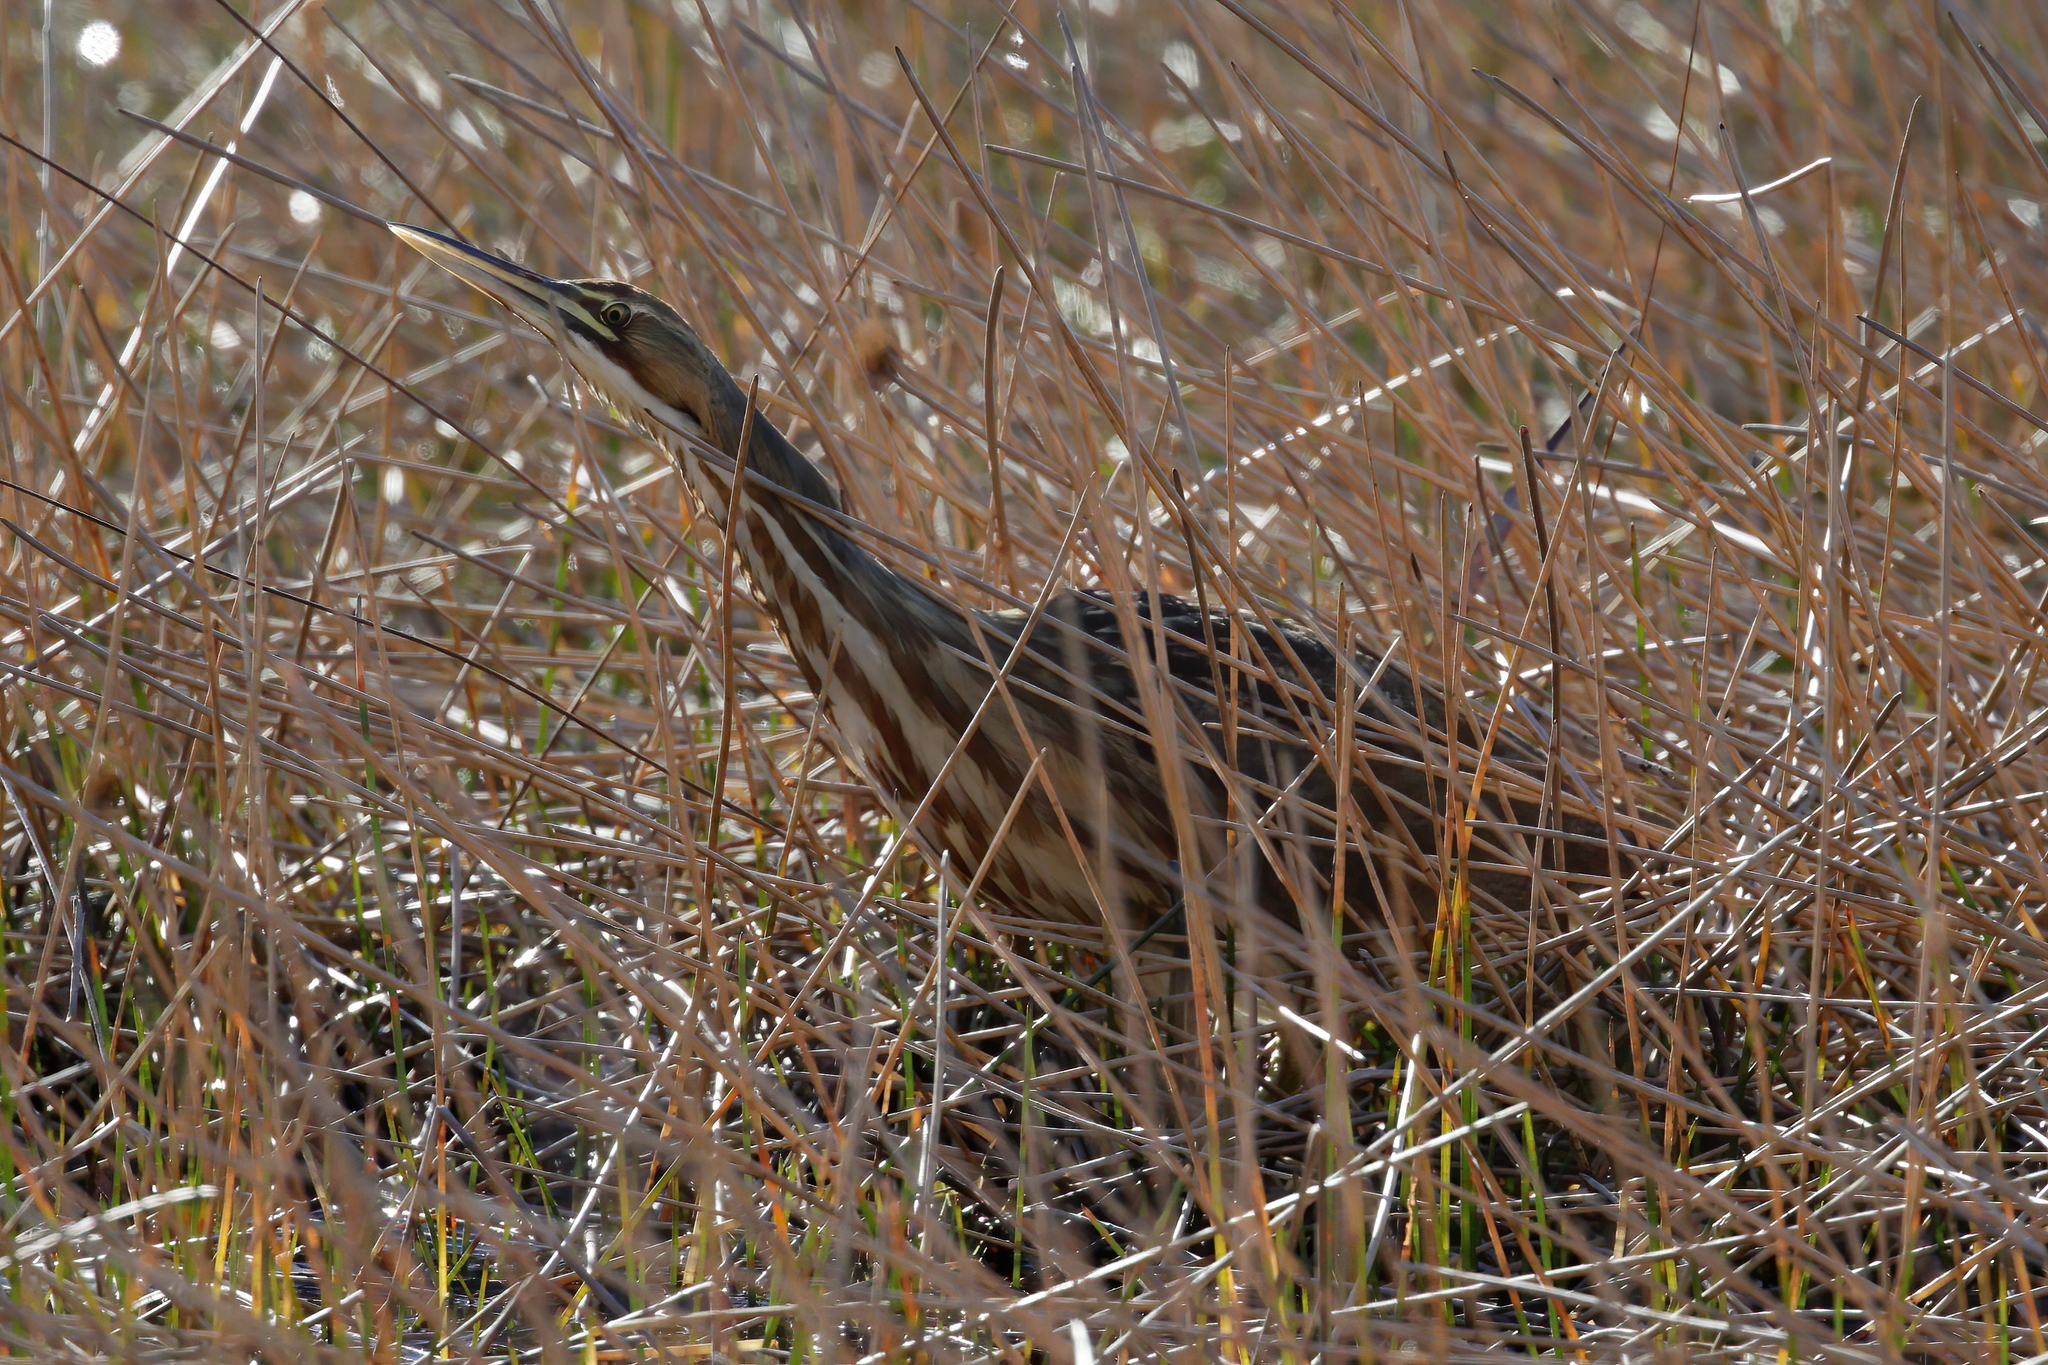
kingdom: Animalia
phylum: Chordata
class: Aves
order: Pelecaniformes
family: Ardeidae
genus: Botaurus
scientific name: Botaurus lentiginosus
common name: American bittern
